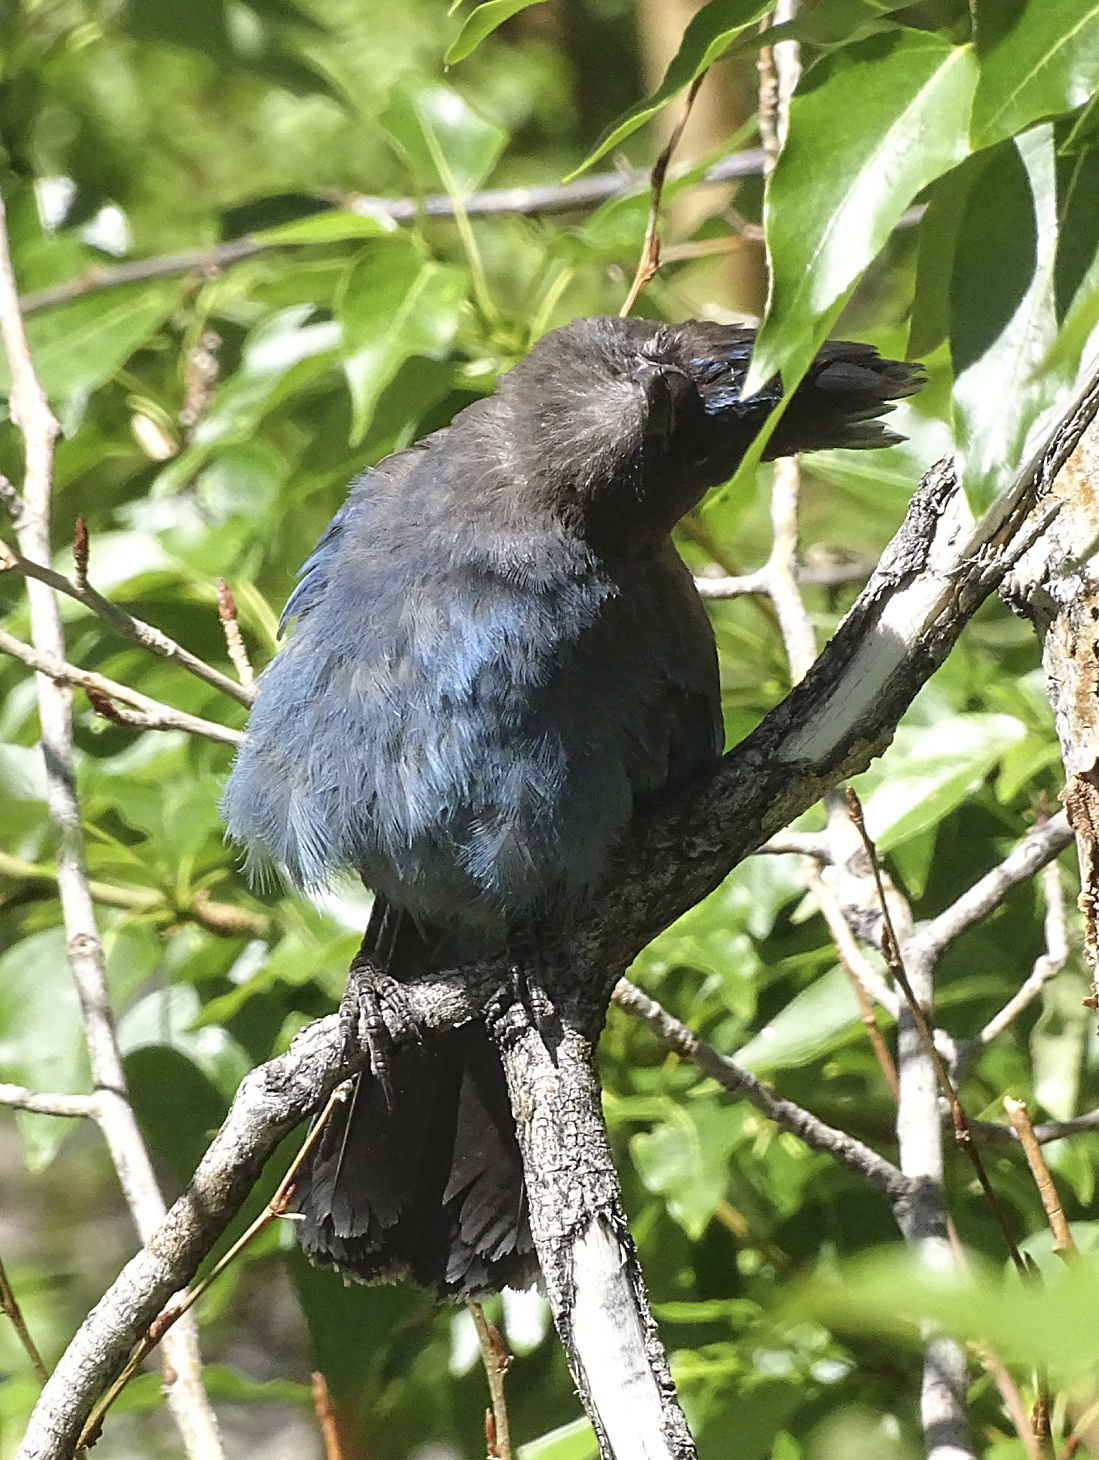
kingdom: Animalia
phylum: Chordata
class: Aves
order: Passeriformes
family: Corvidae
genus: Cyanocitta
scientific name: Cyanocitta stelleri
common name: Steller's jay
